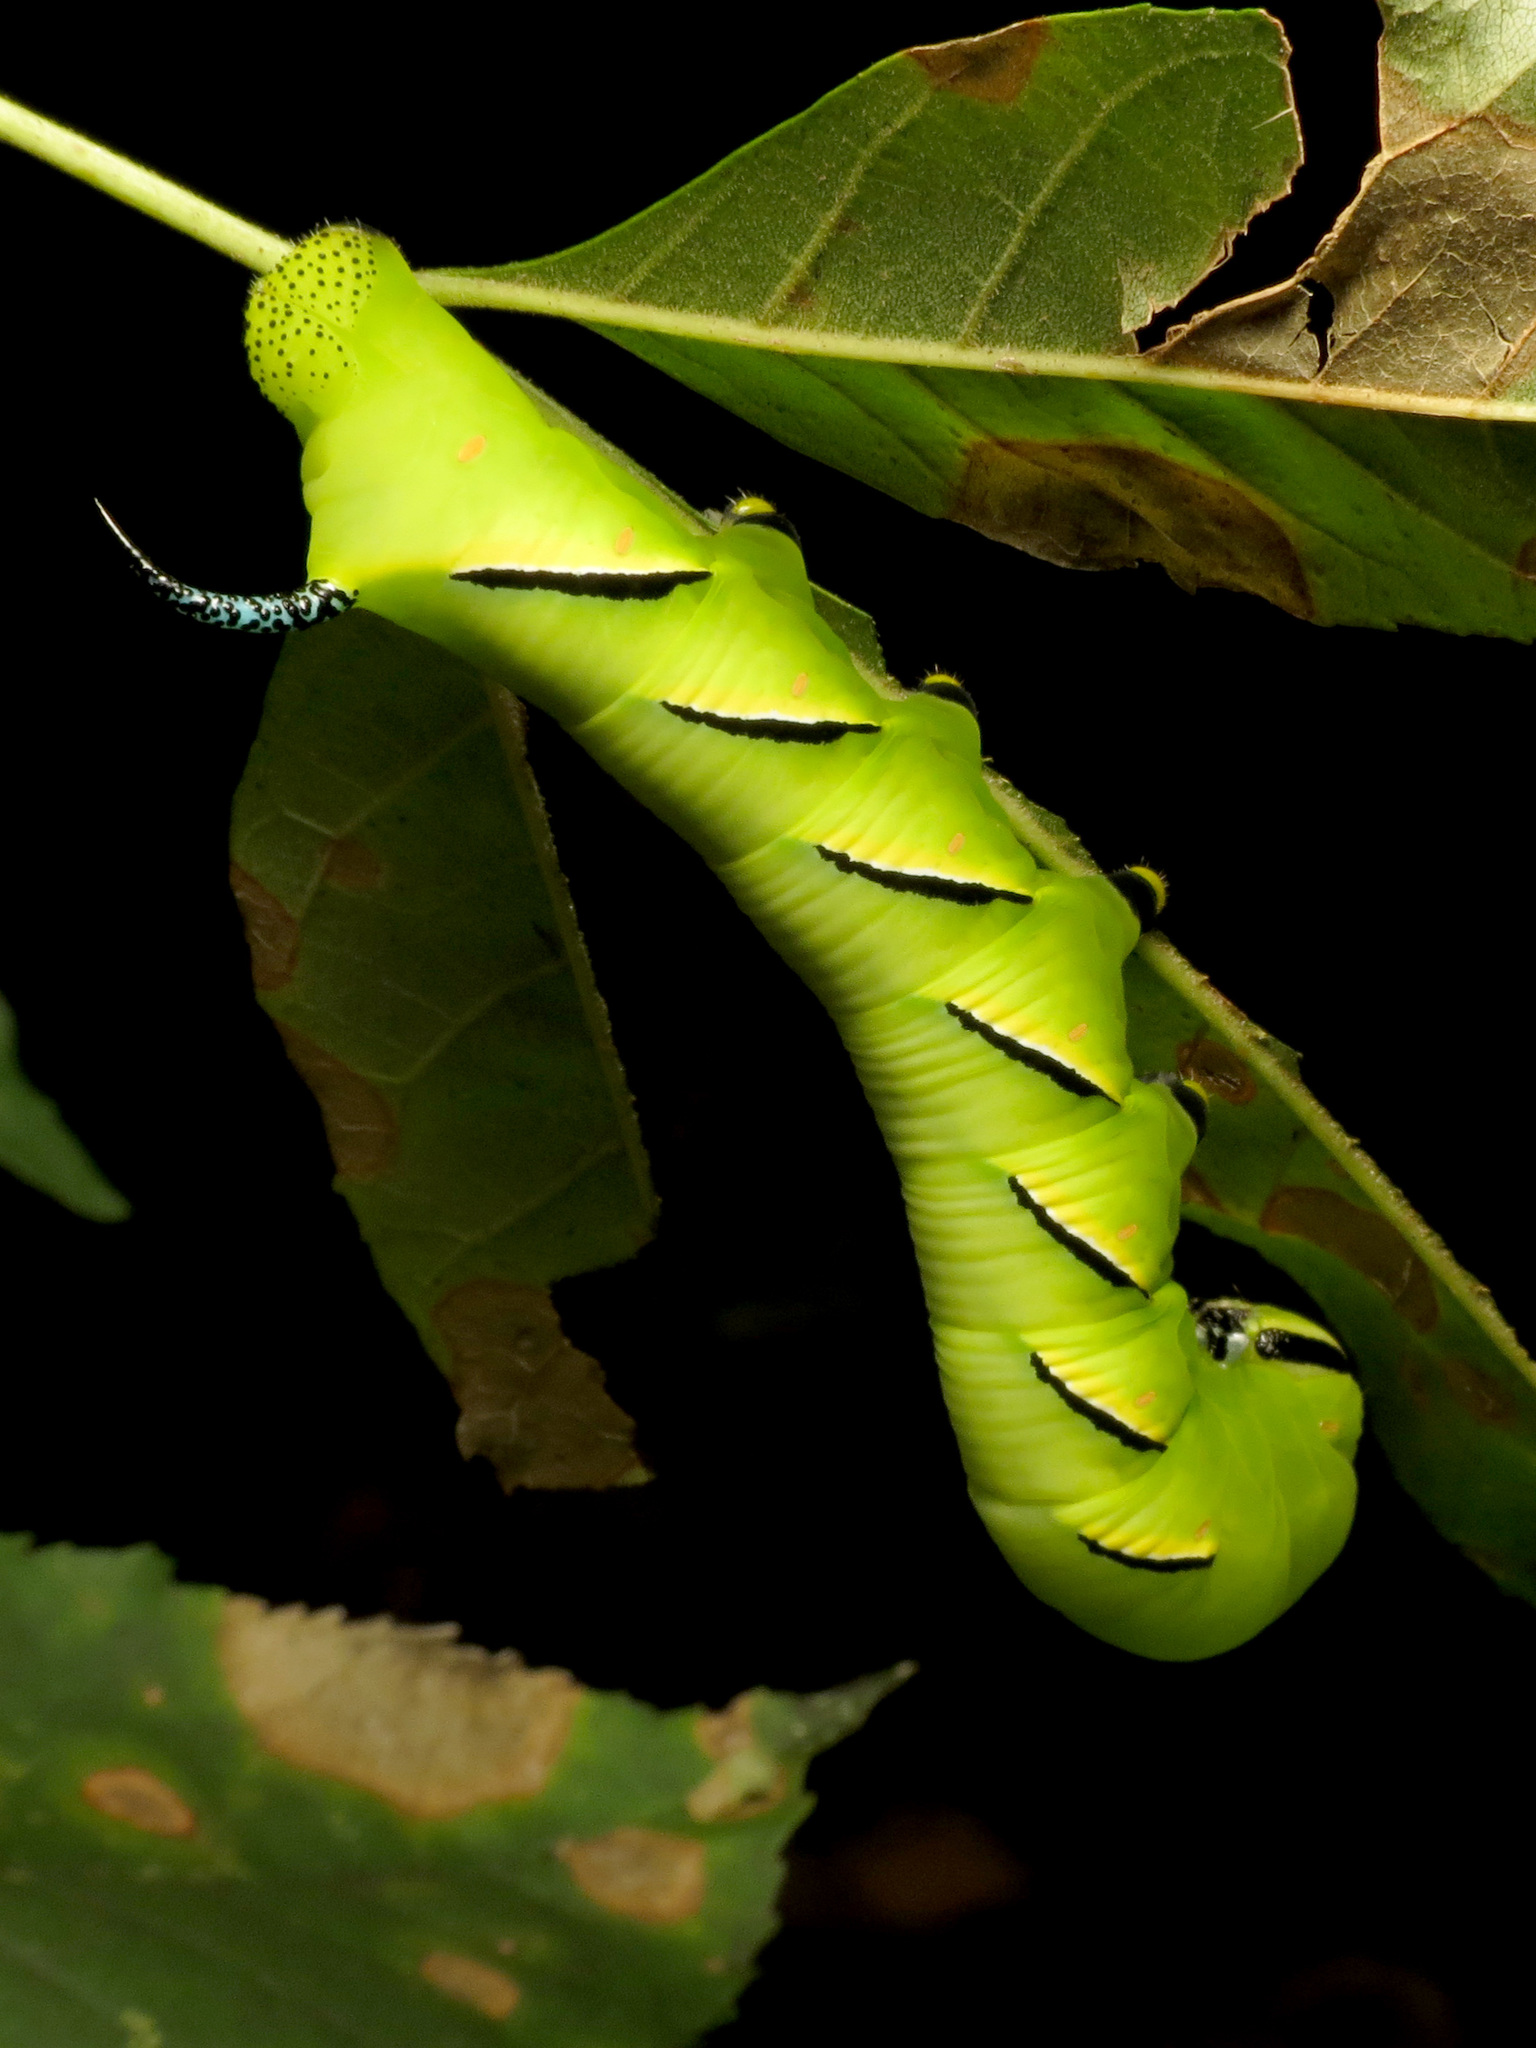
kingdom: Animalia
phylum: Arthropoda
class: Insecta
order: Lepidoptera
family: Sphingidae
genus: Sphinx
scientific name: Sphinx kalmiae
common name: Laurel sphinx
